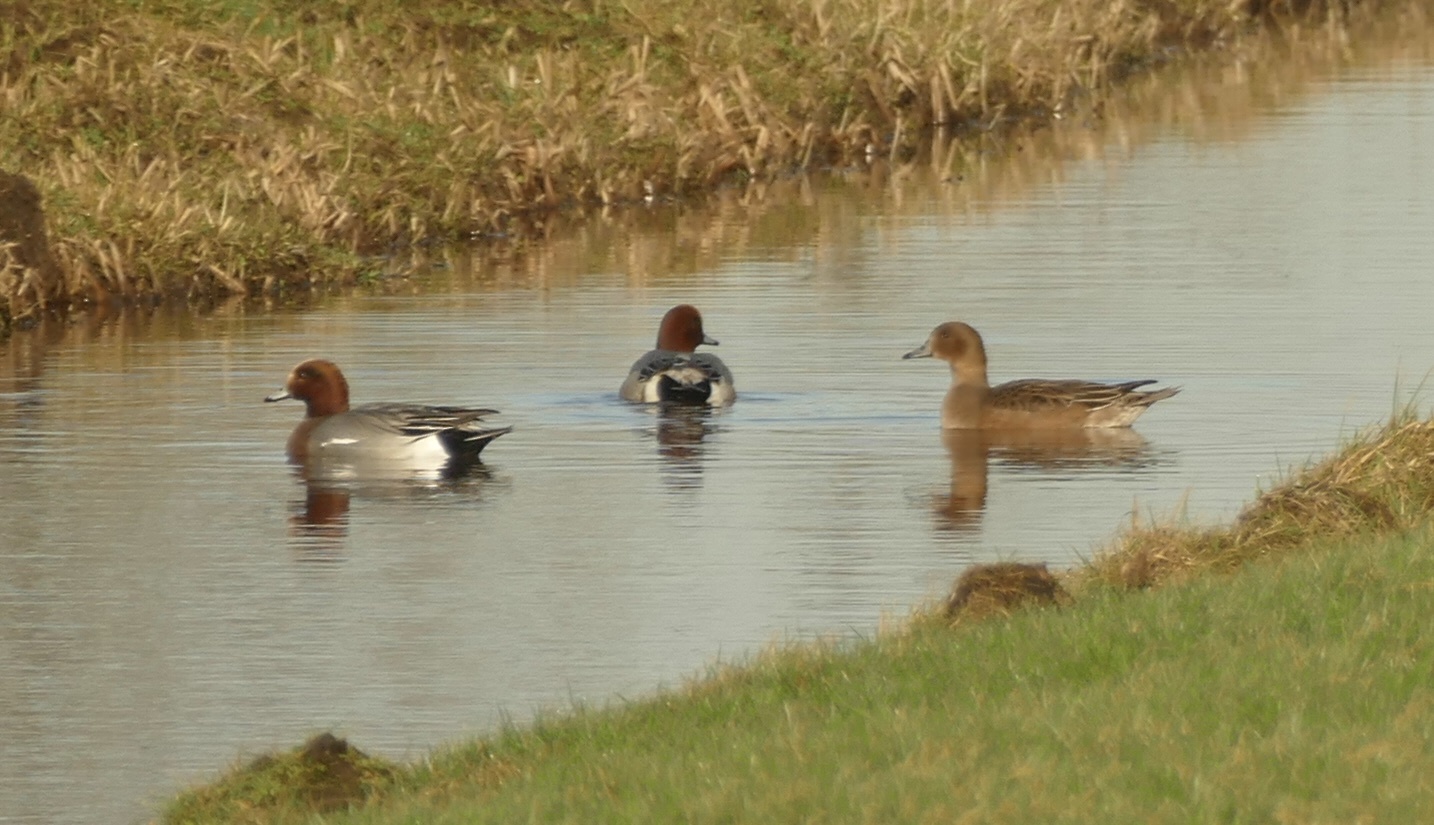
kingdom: Animalia
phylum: Chordata
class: Aves
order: Anseriformes
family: Anatidae
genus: Mareca
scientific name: Mareca penelope
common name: Eurasian wigeon
